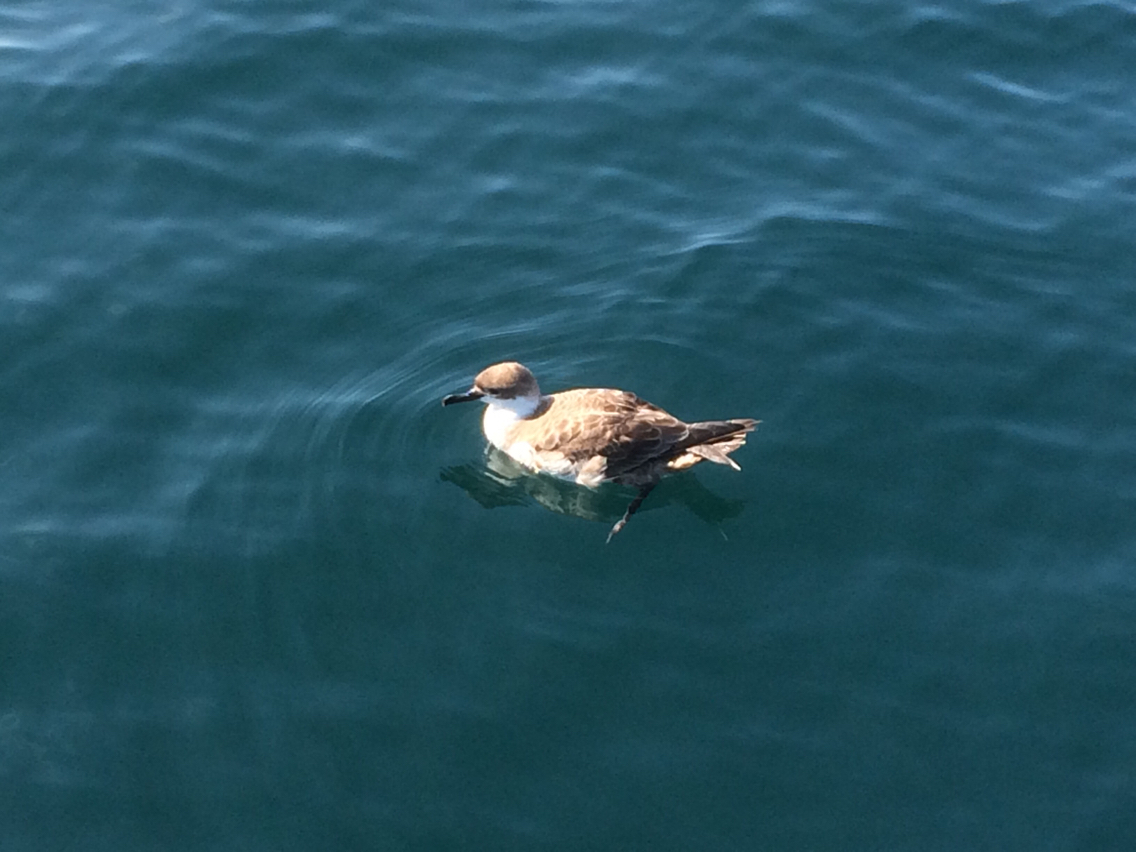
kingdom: Animalia
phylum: Chordata
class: Aves
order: Procellariiformes
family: Procellariidae
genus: Puffinus
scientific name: Puffinus gravis
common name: Great shearwater
